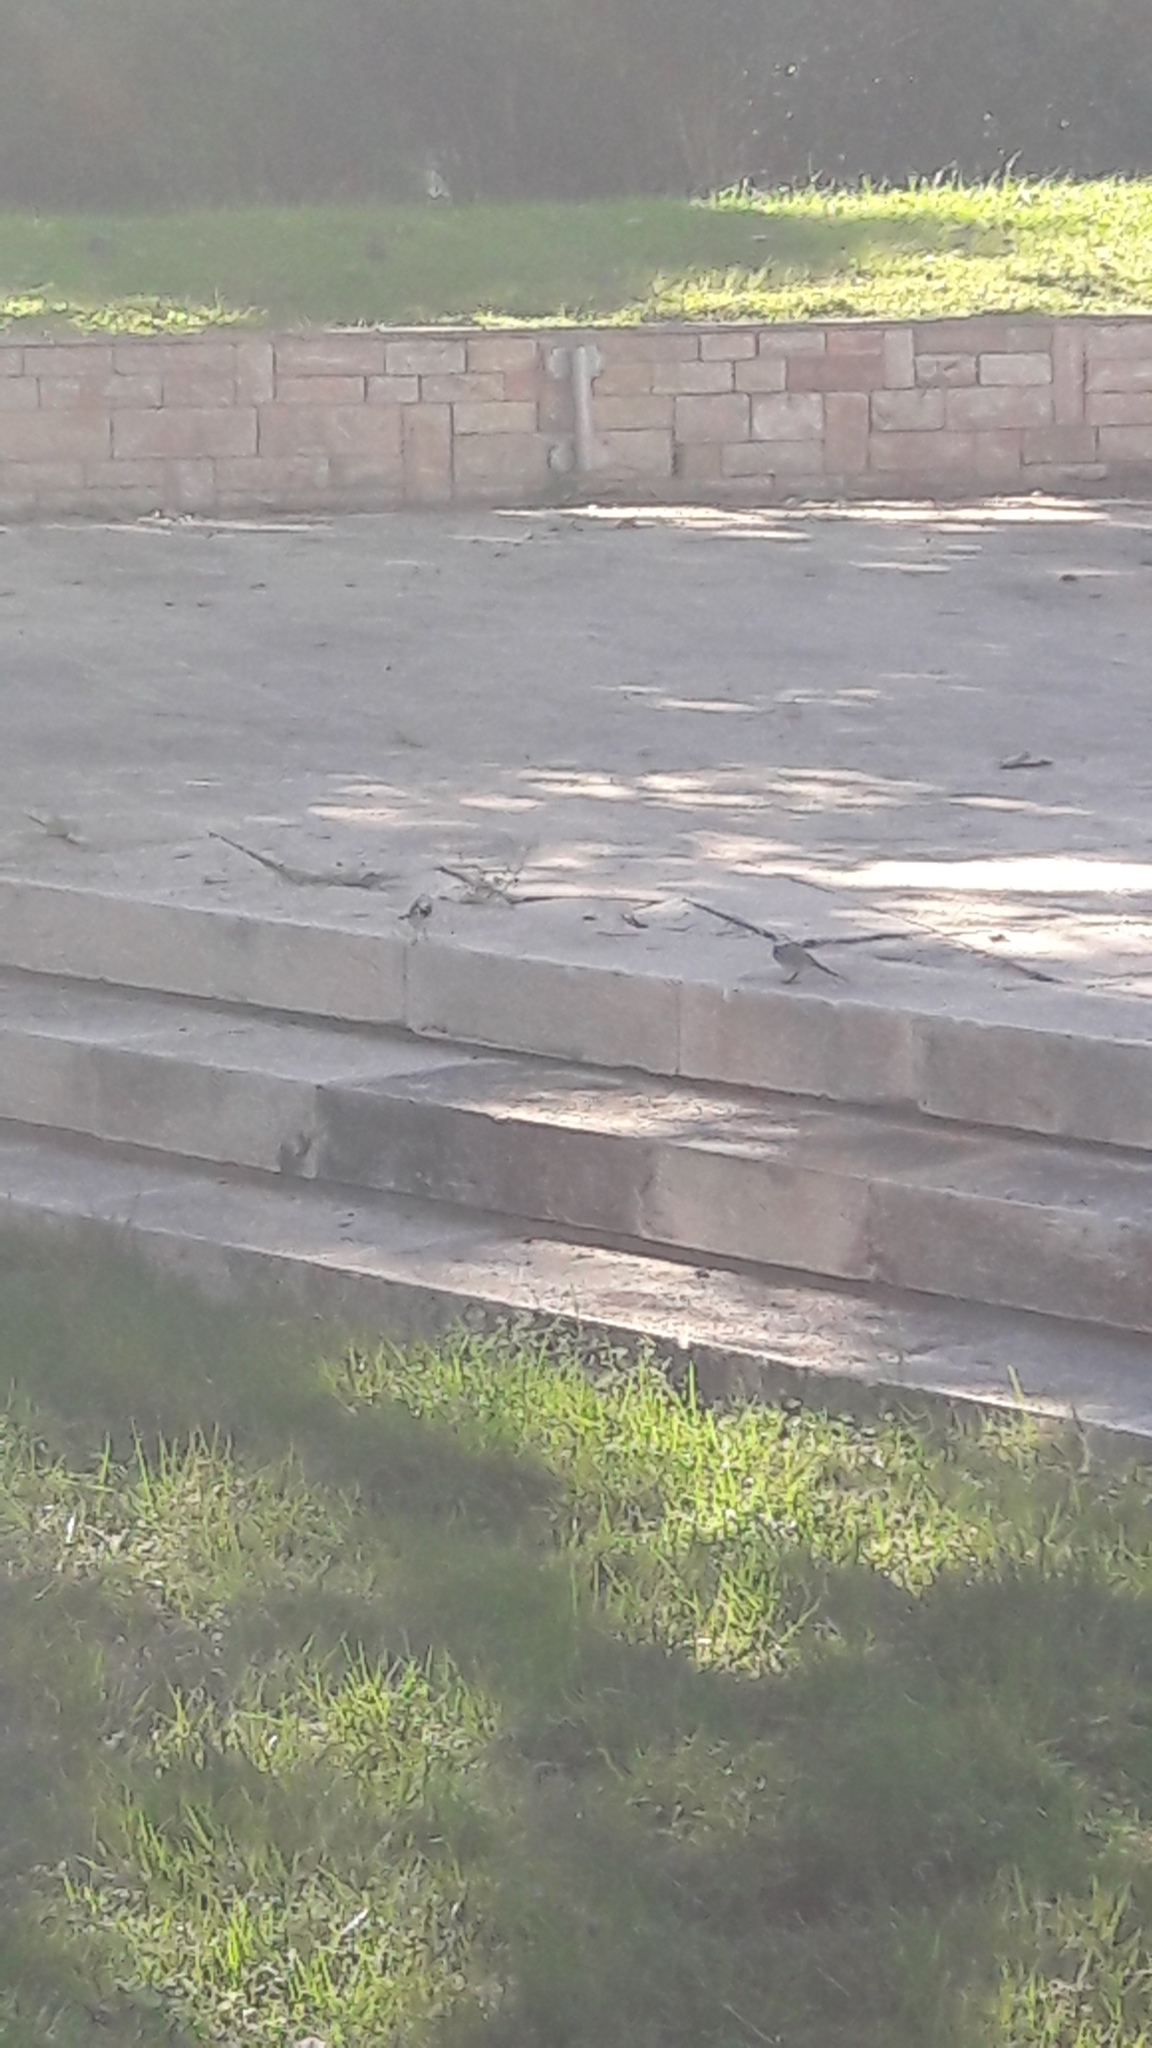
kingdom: Animalia
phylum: Chordata
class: Aves
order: Passeriformes
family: Motacillidae
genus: Motacilla
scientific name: Motacilla alba
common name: White wagtail
